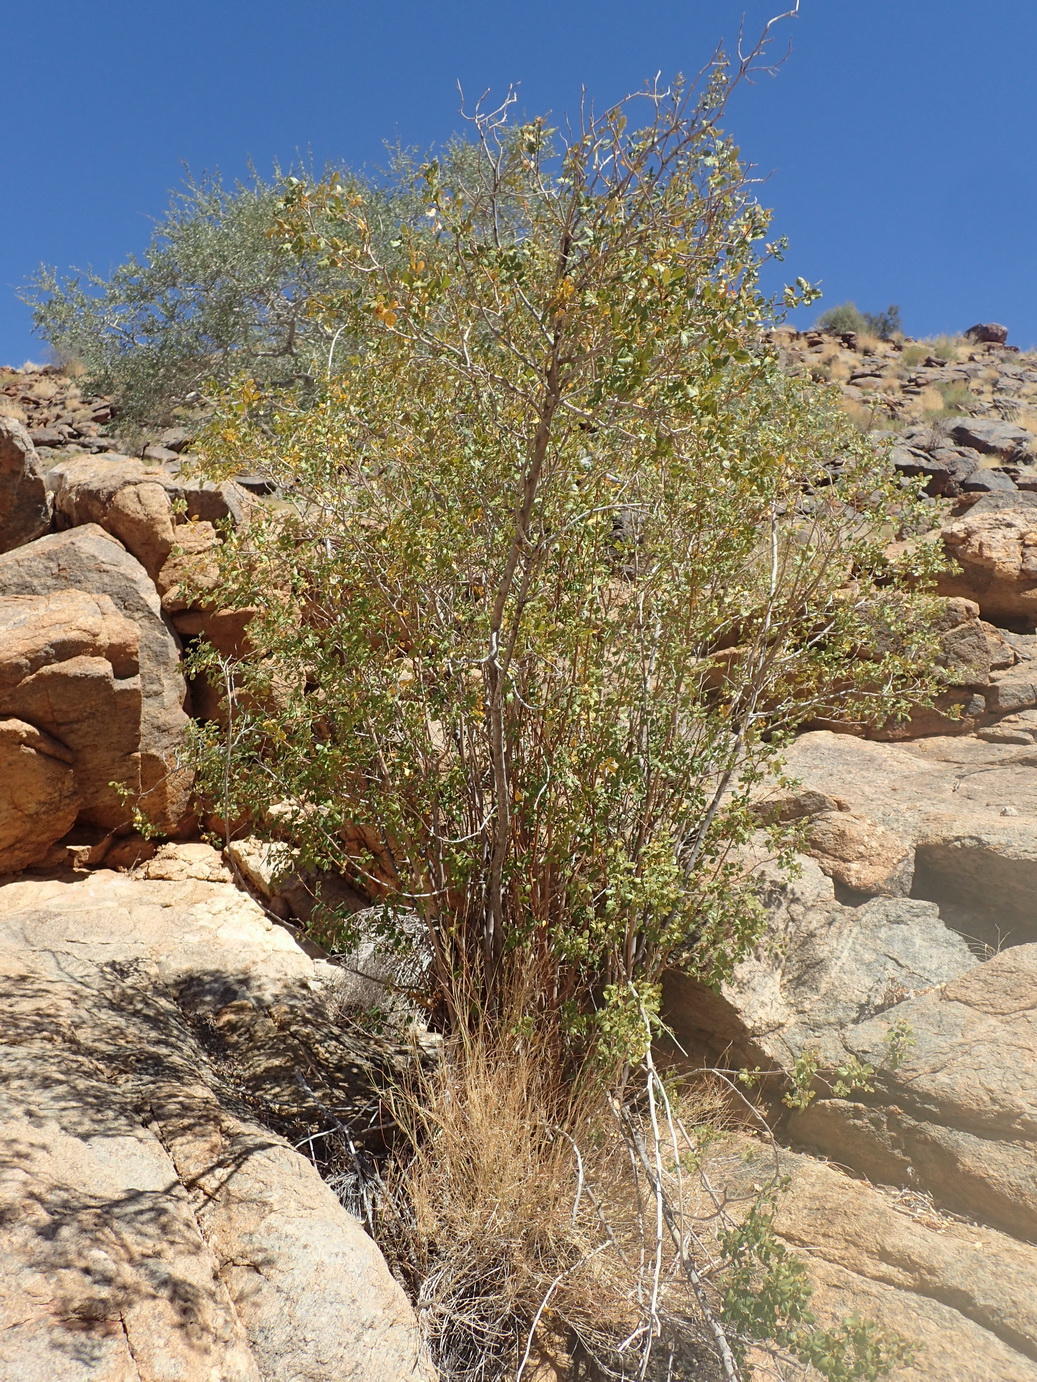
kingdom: Plantae
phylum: Tracheophyta
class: Magnoliopsida
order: Sapindales
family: Anacardiaceae
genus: Searsia
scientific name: Searsia populifolia
